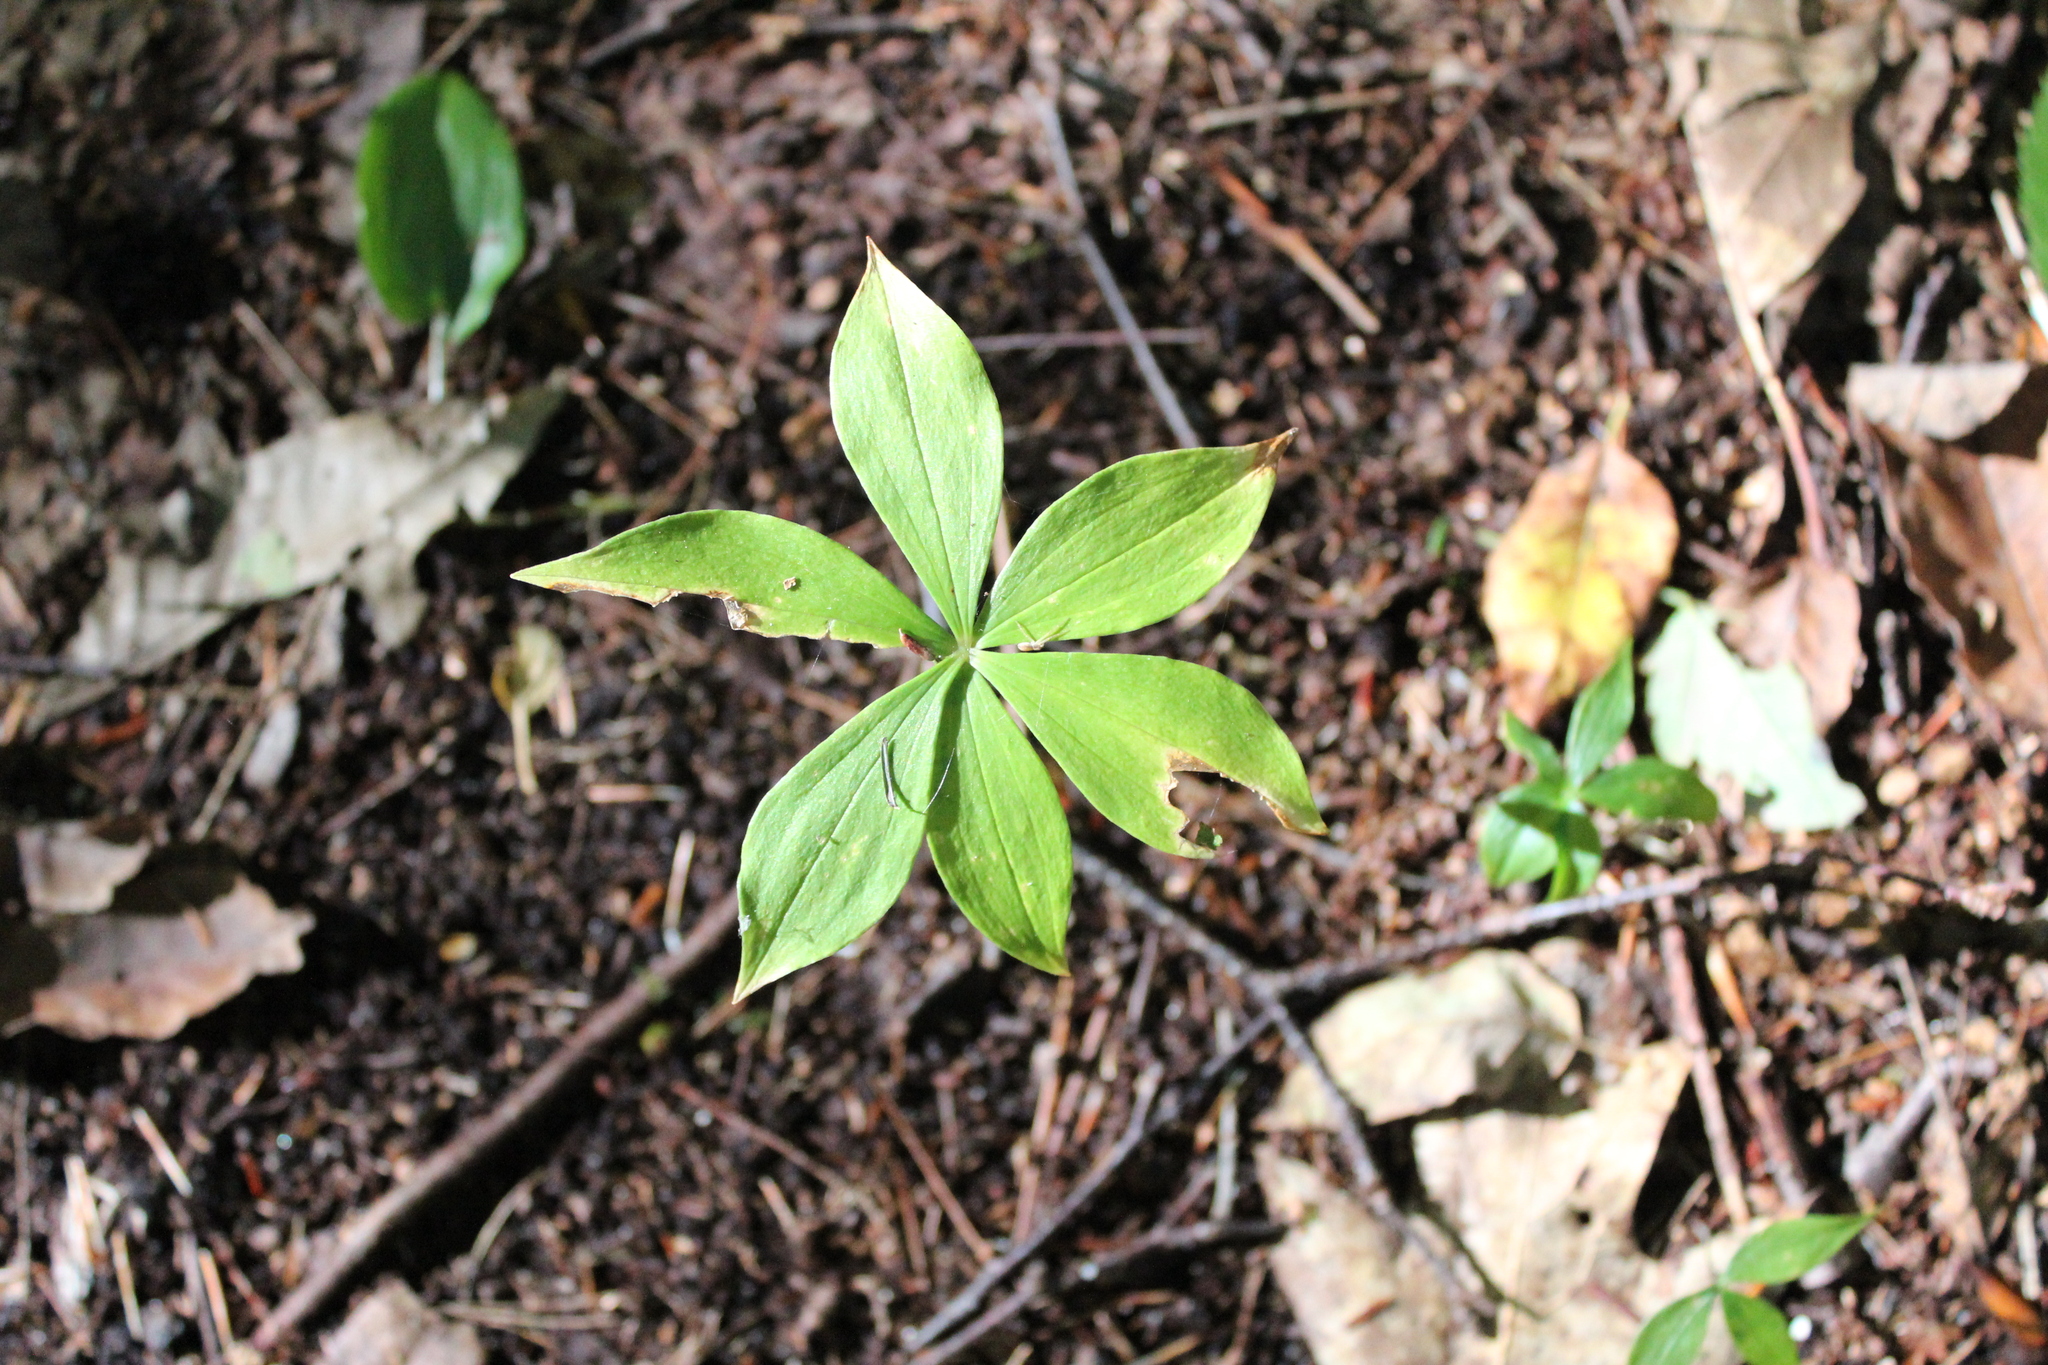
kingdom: Plantae
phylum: Tracheophyta
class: Liliopsida
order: Liliales
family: Liliaceae
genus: Medeola
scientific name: Medeola virginiana
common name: Indian cucumber-root
